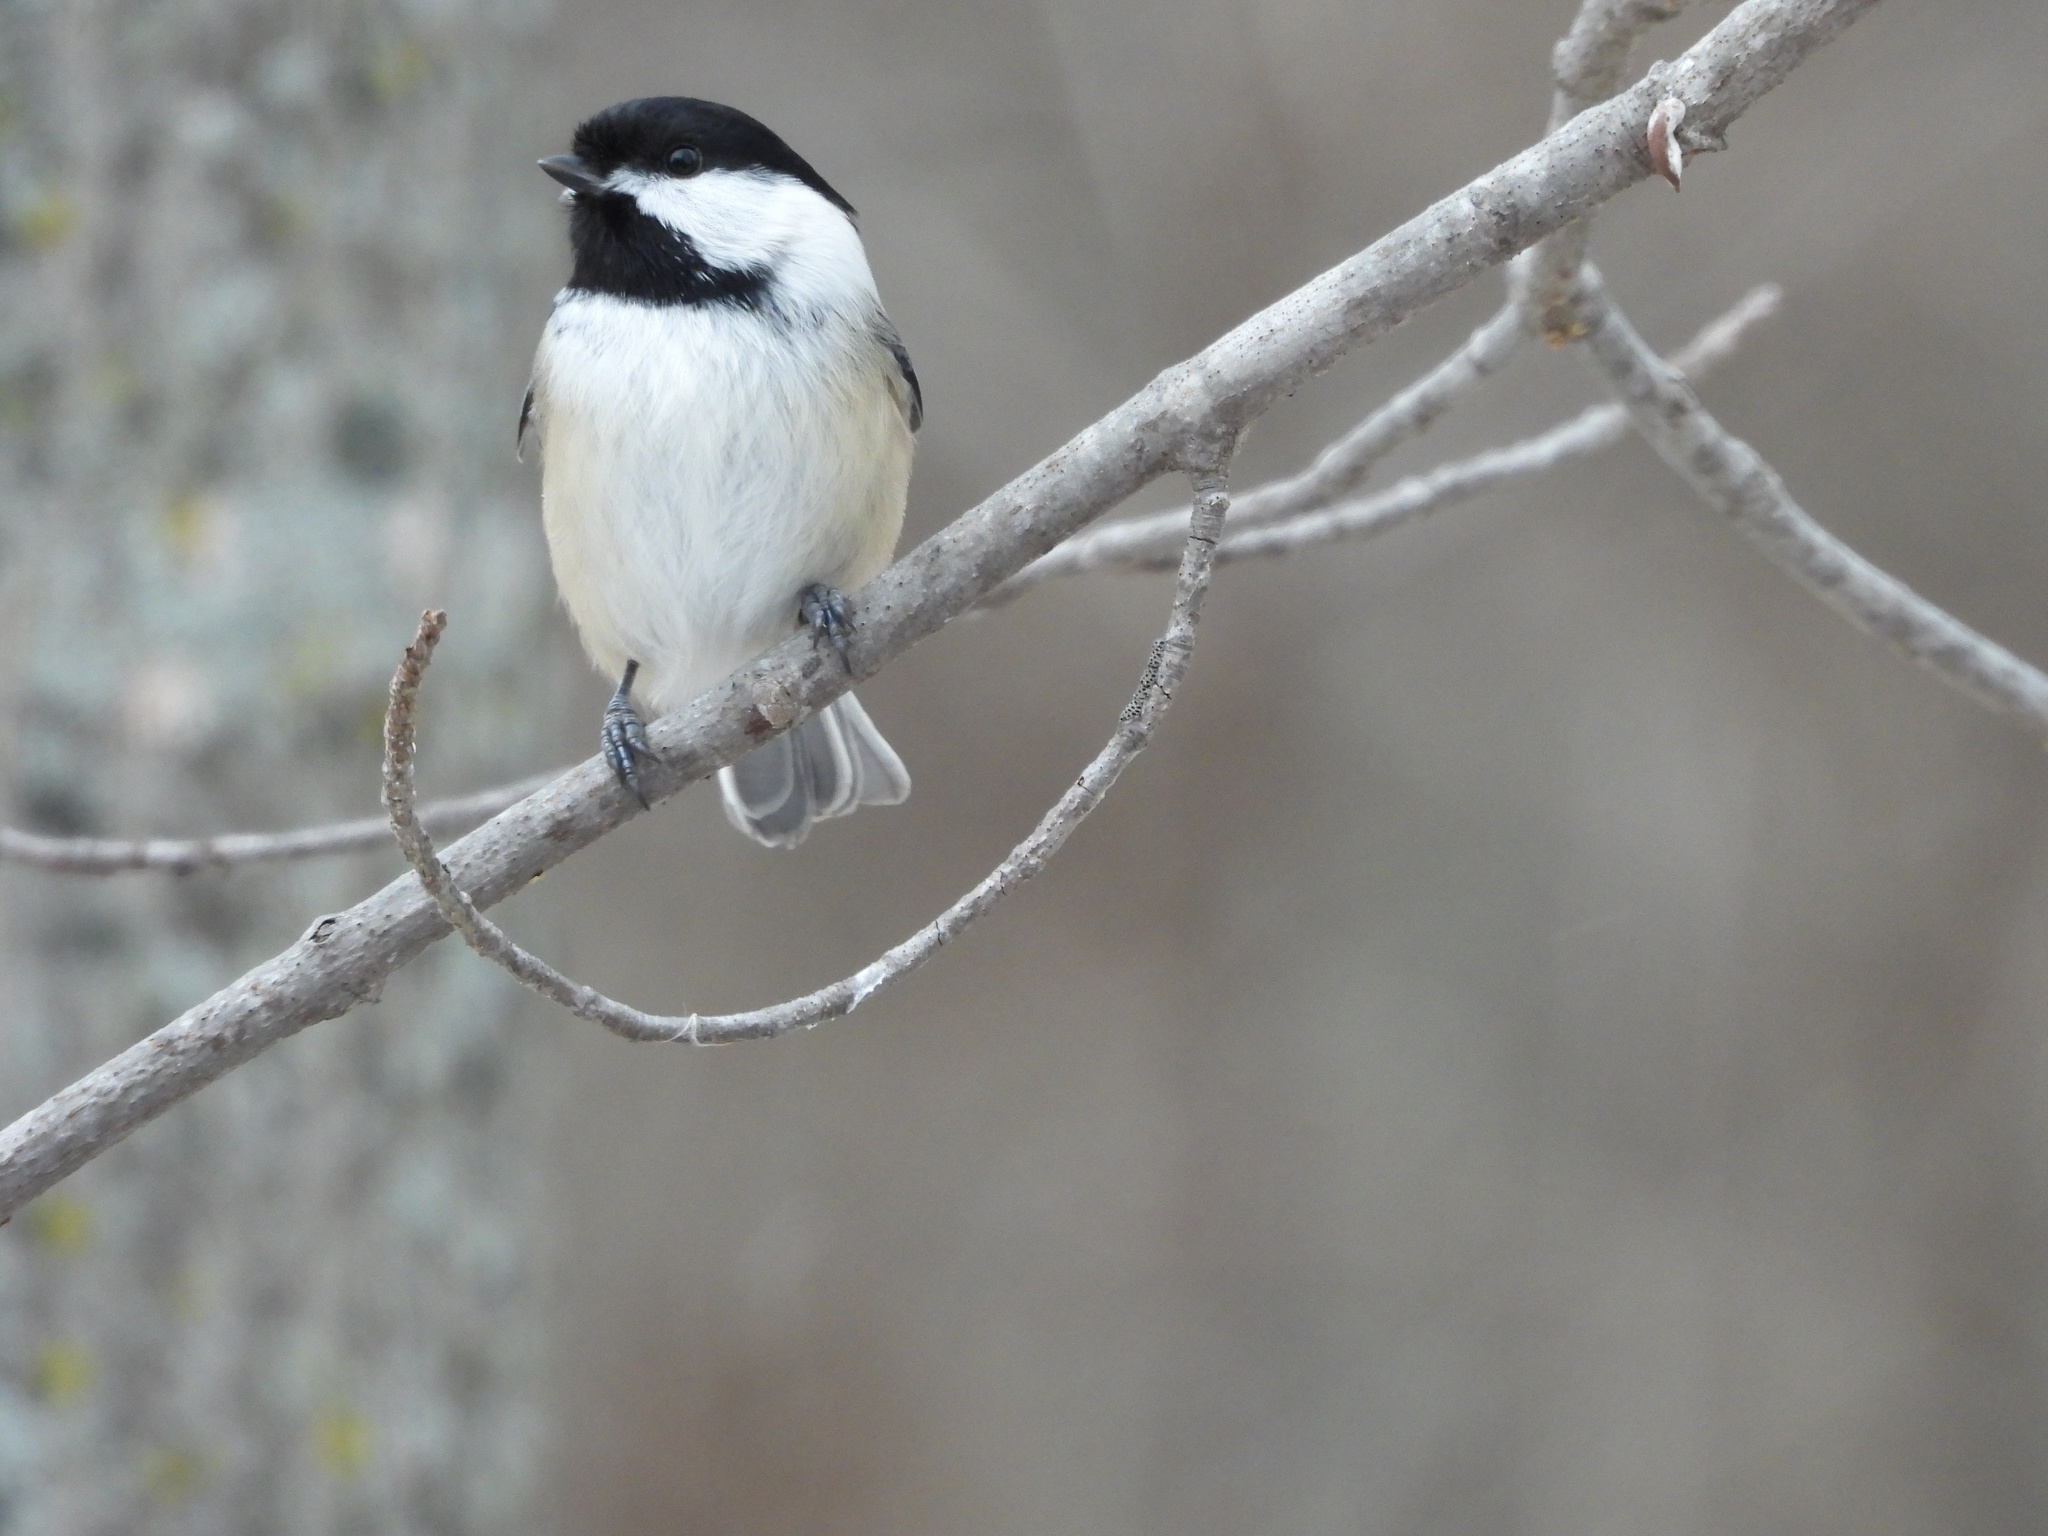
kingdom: Animalia
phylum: Chordata
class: Aves
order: Passeriformes
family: Paridae
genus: Poecile
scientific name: Poecile atricapillus
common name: Black-capped chickadee
